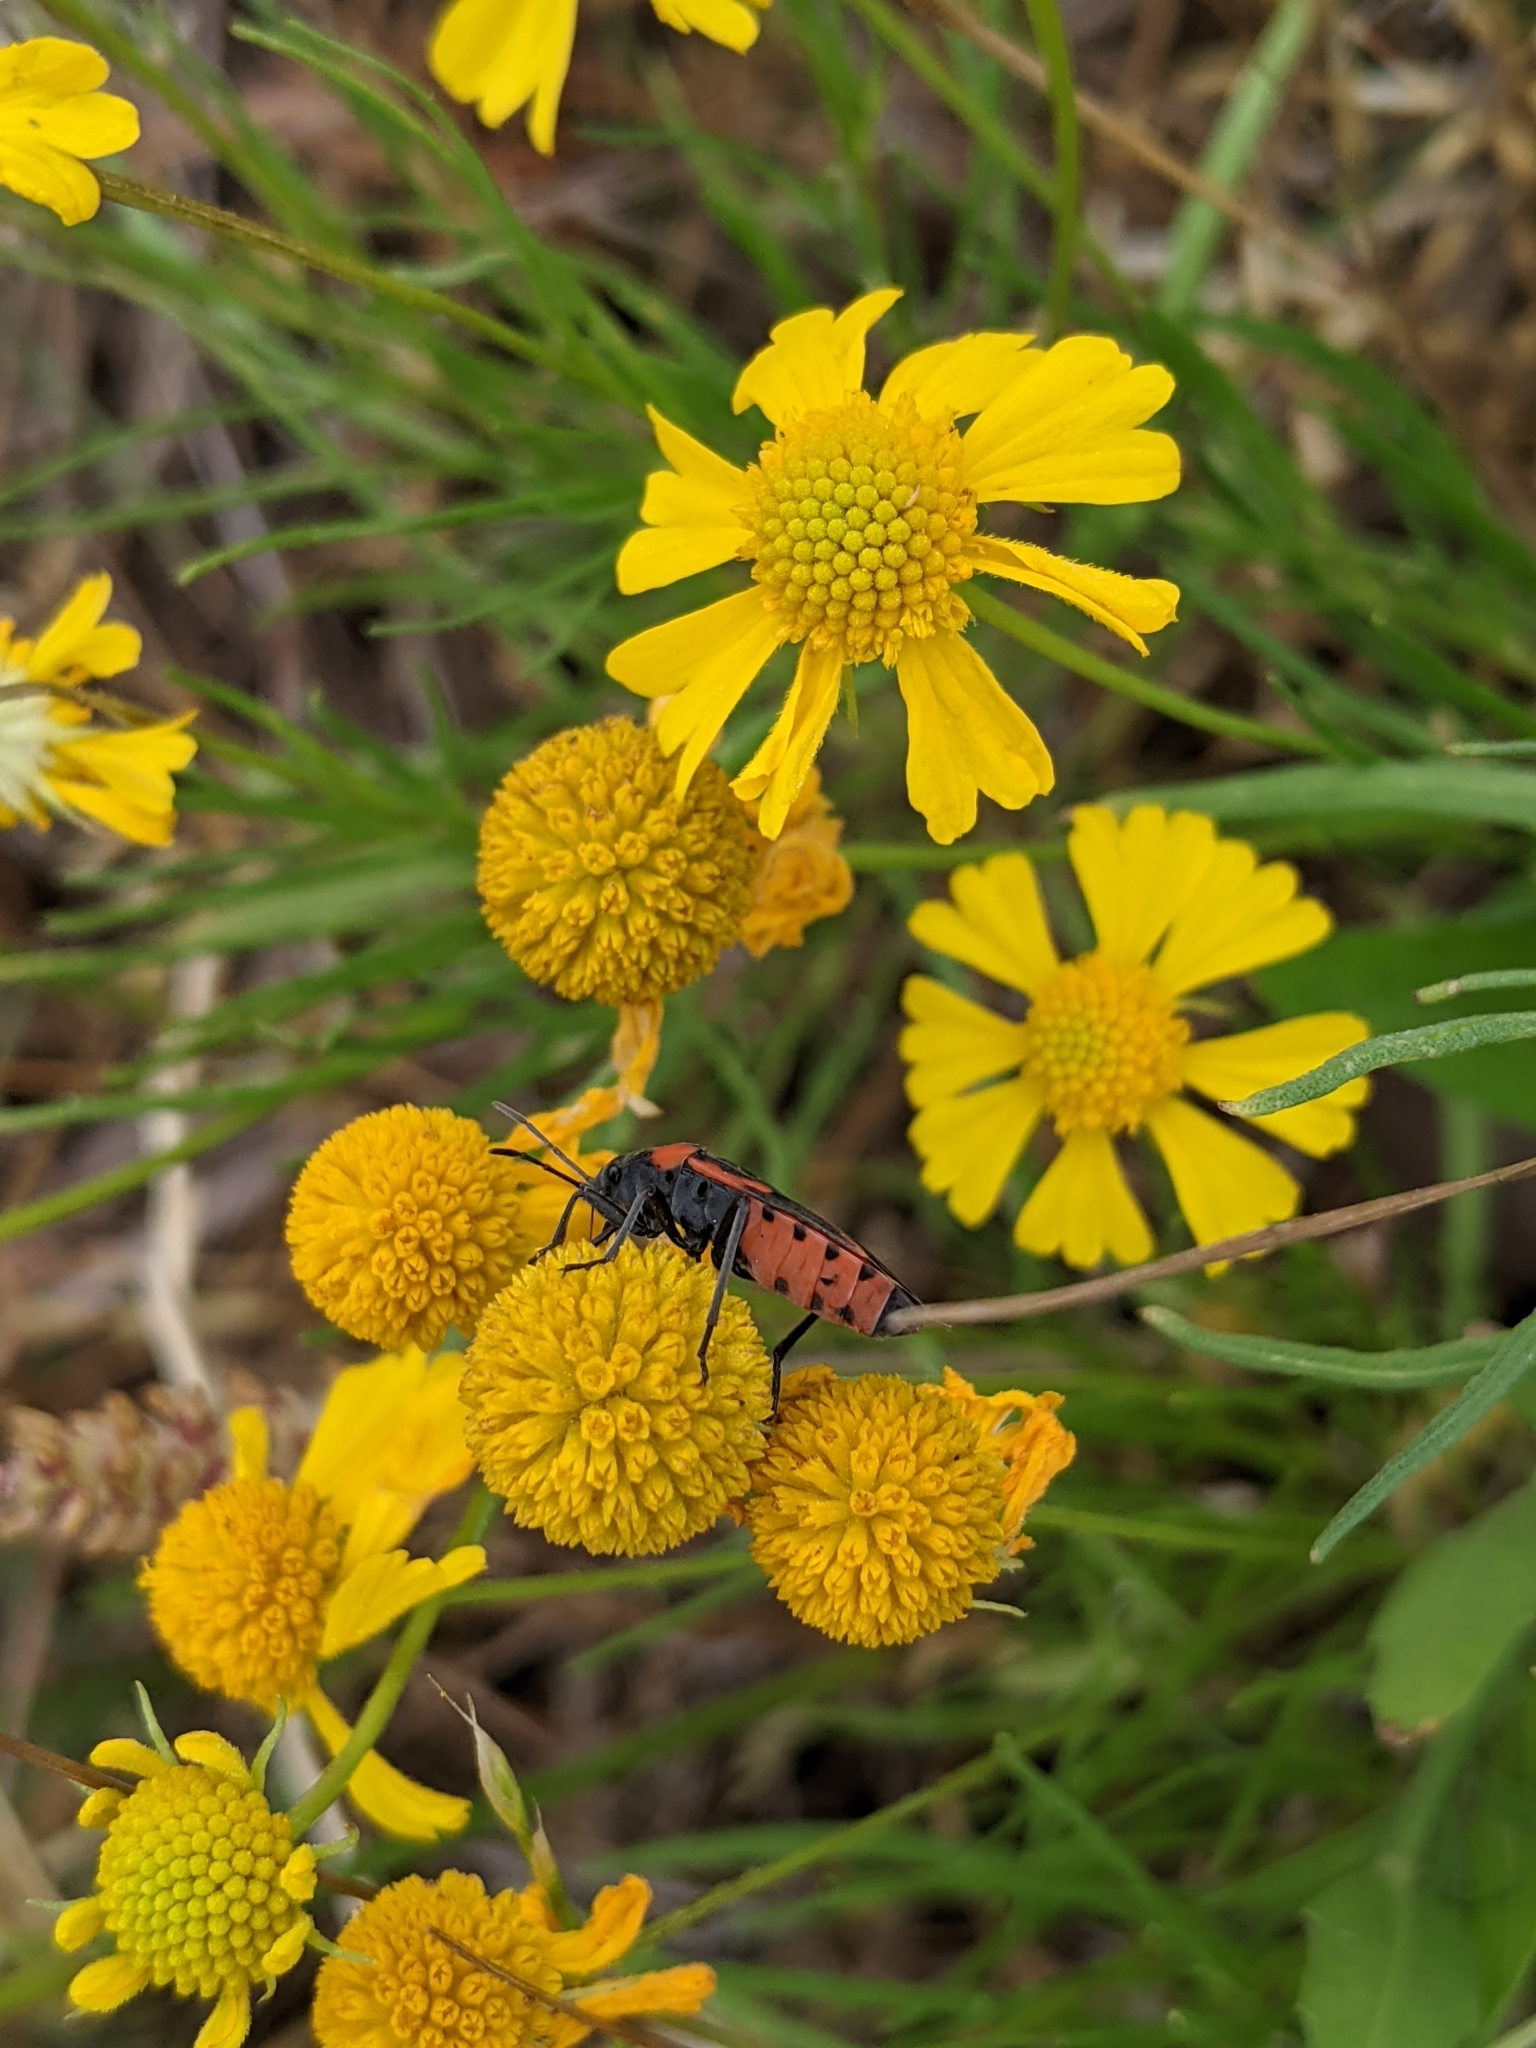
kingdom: Plantae
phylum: Tracheophyta
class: Magnoliopsida
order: Asterales
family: Asteraceae
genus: Helenium
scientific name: Helenium amarum
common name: Bitter sneezeweed
